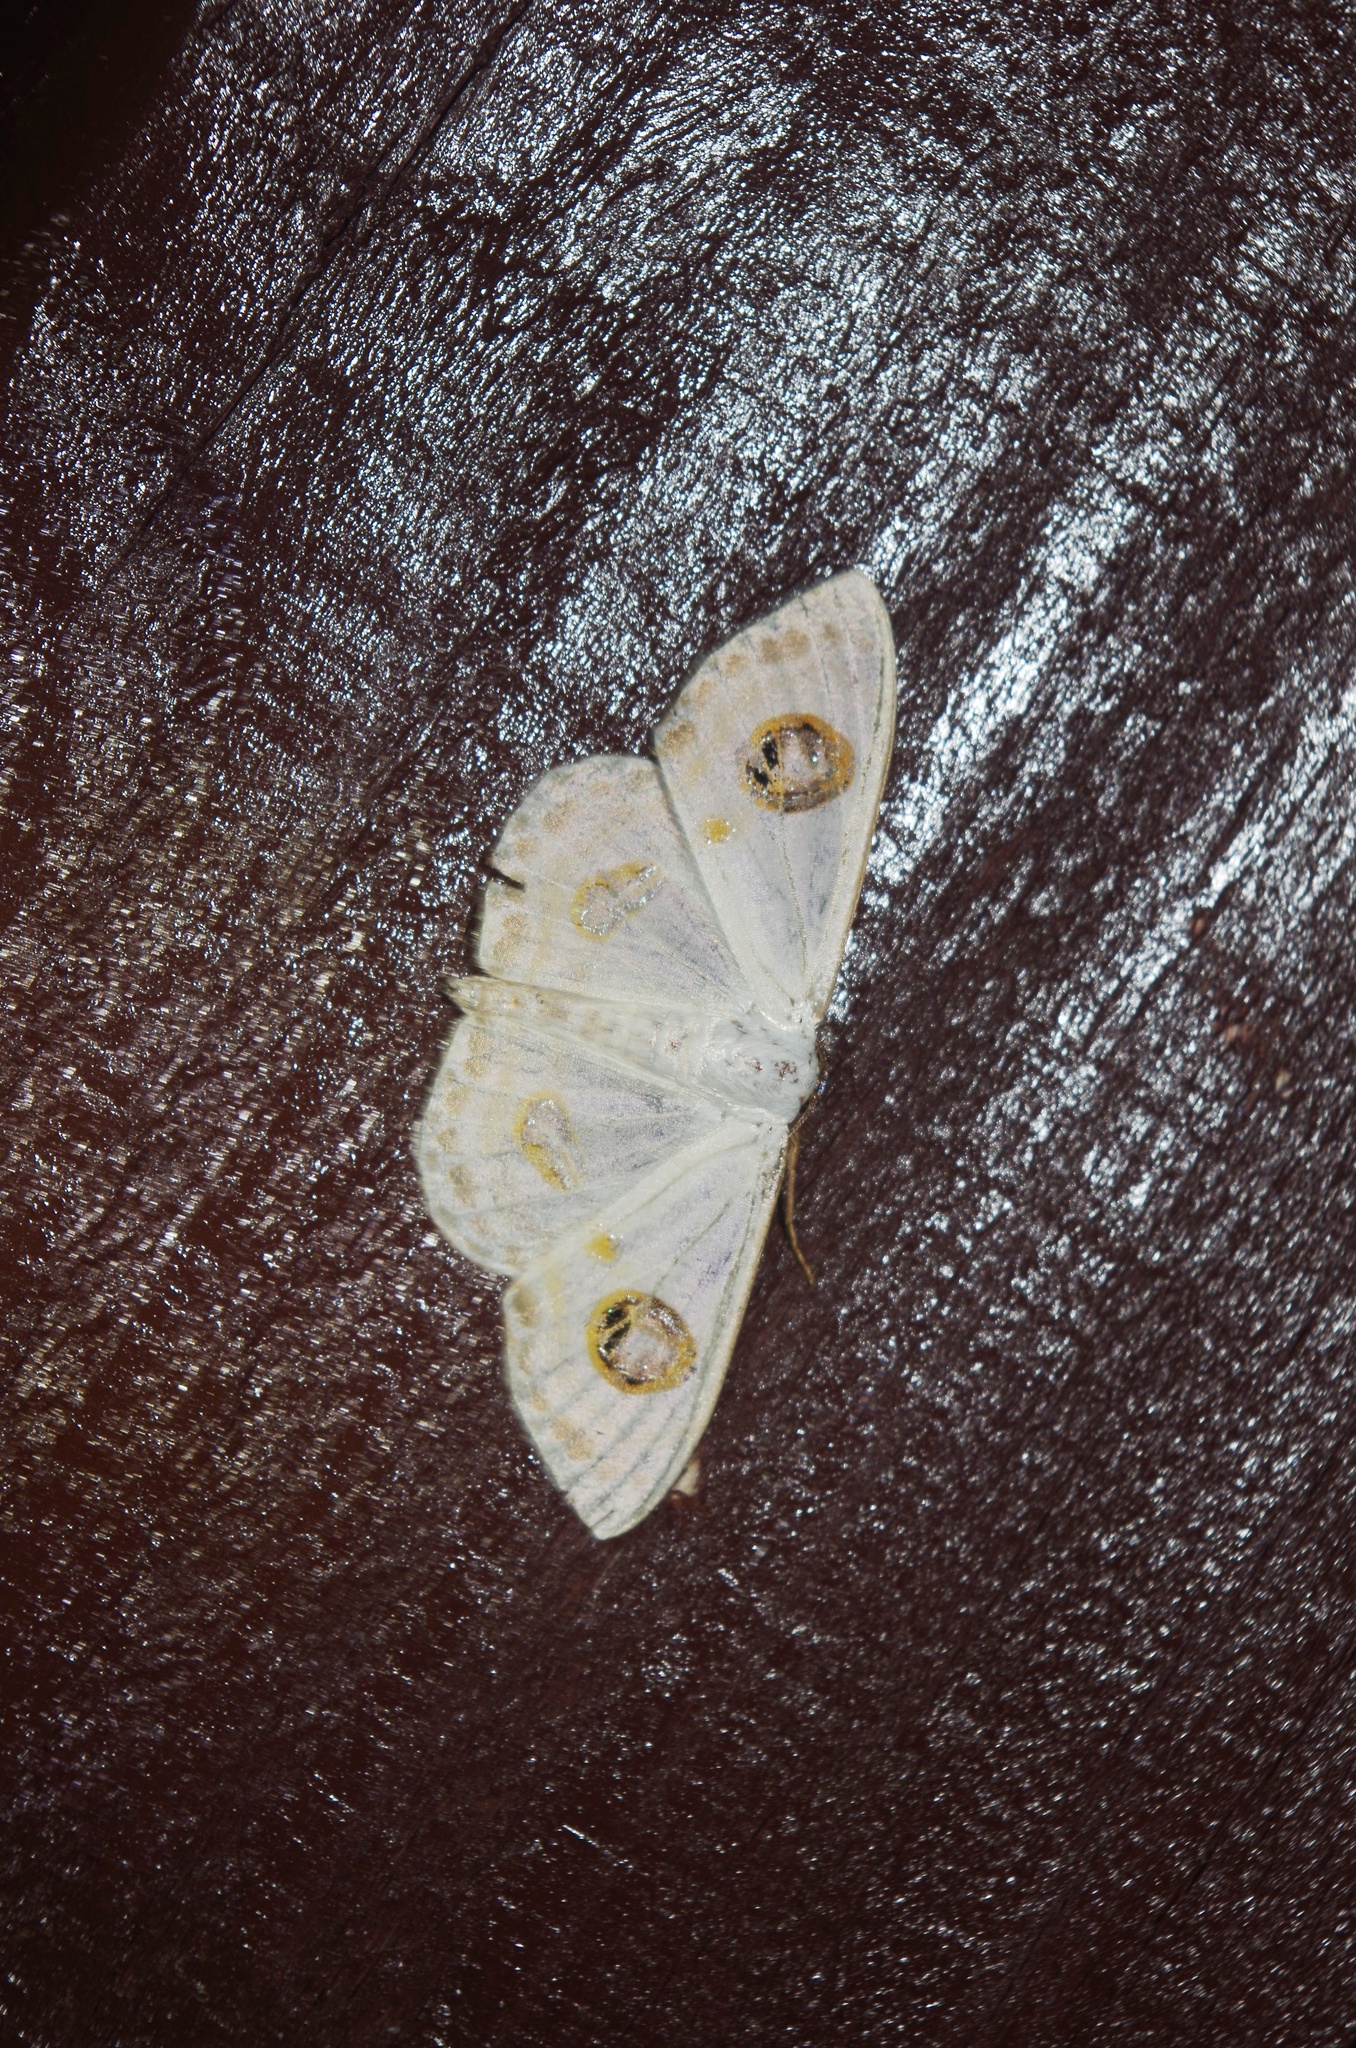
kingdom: Animalia
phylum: Arthropoda
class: Insecta
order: Lepidoptera
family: Geometridae
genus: Problepsis
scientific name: Problepsis albidior
